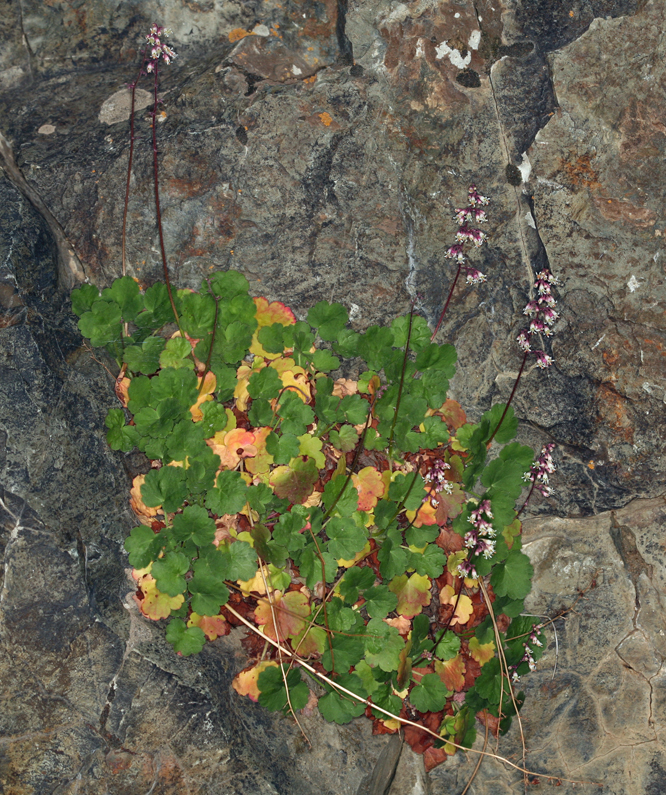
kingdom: Plantae
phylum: Tracheophyta
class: Magnoliopsida
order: Saxifragales
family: Saxifragaceae
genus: Heuchera
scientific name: Heuchera rubescens
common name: Jack-o'the-rocks
